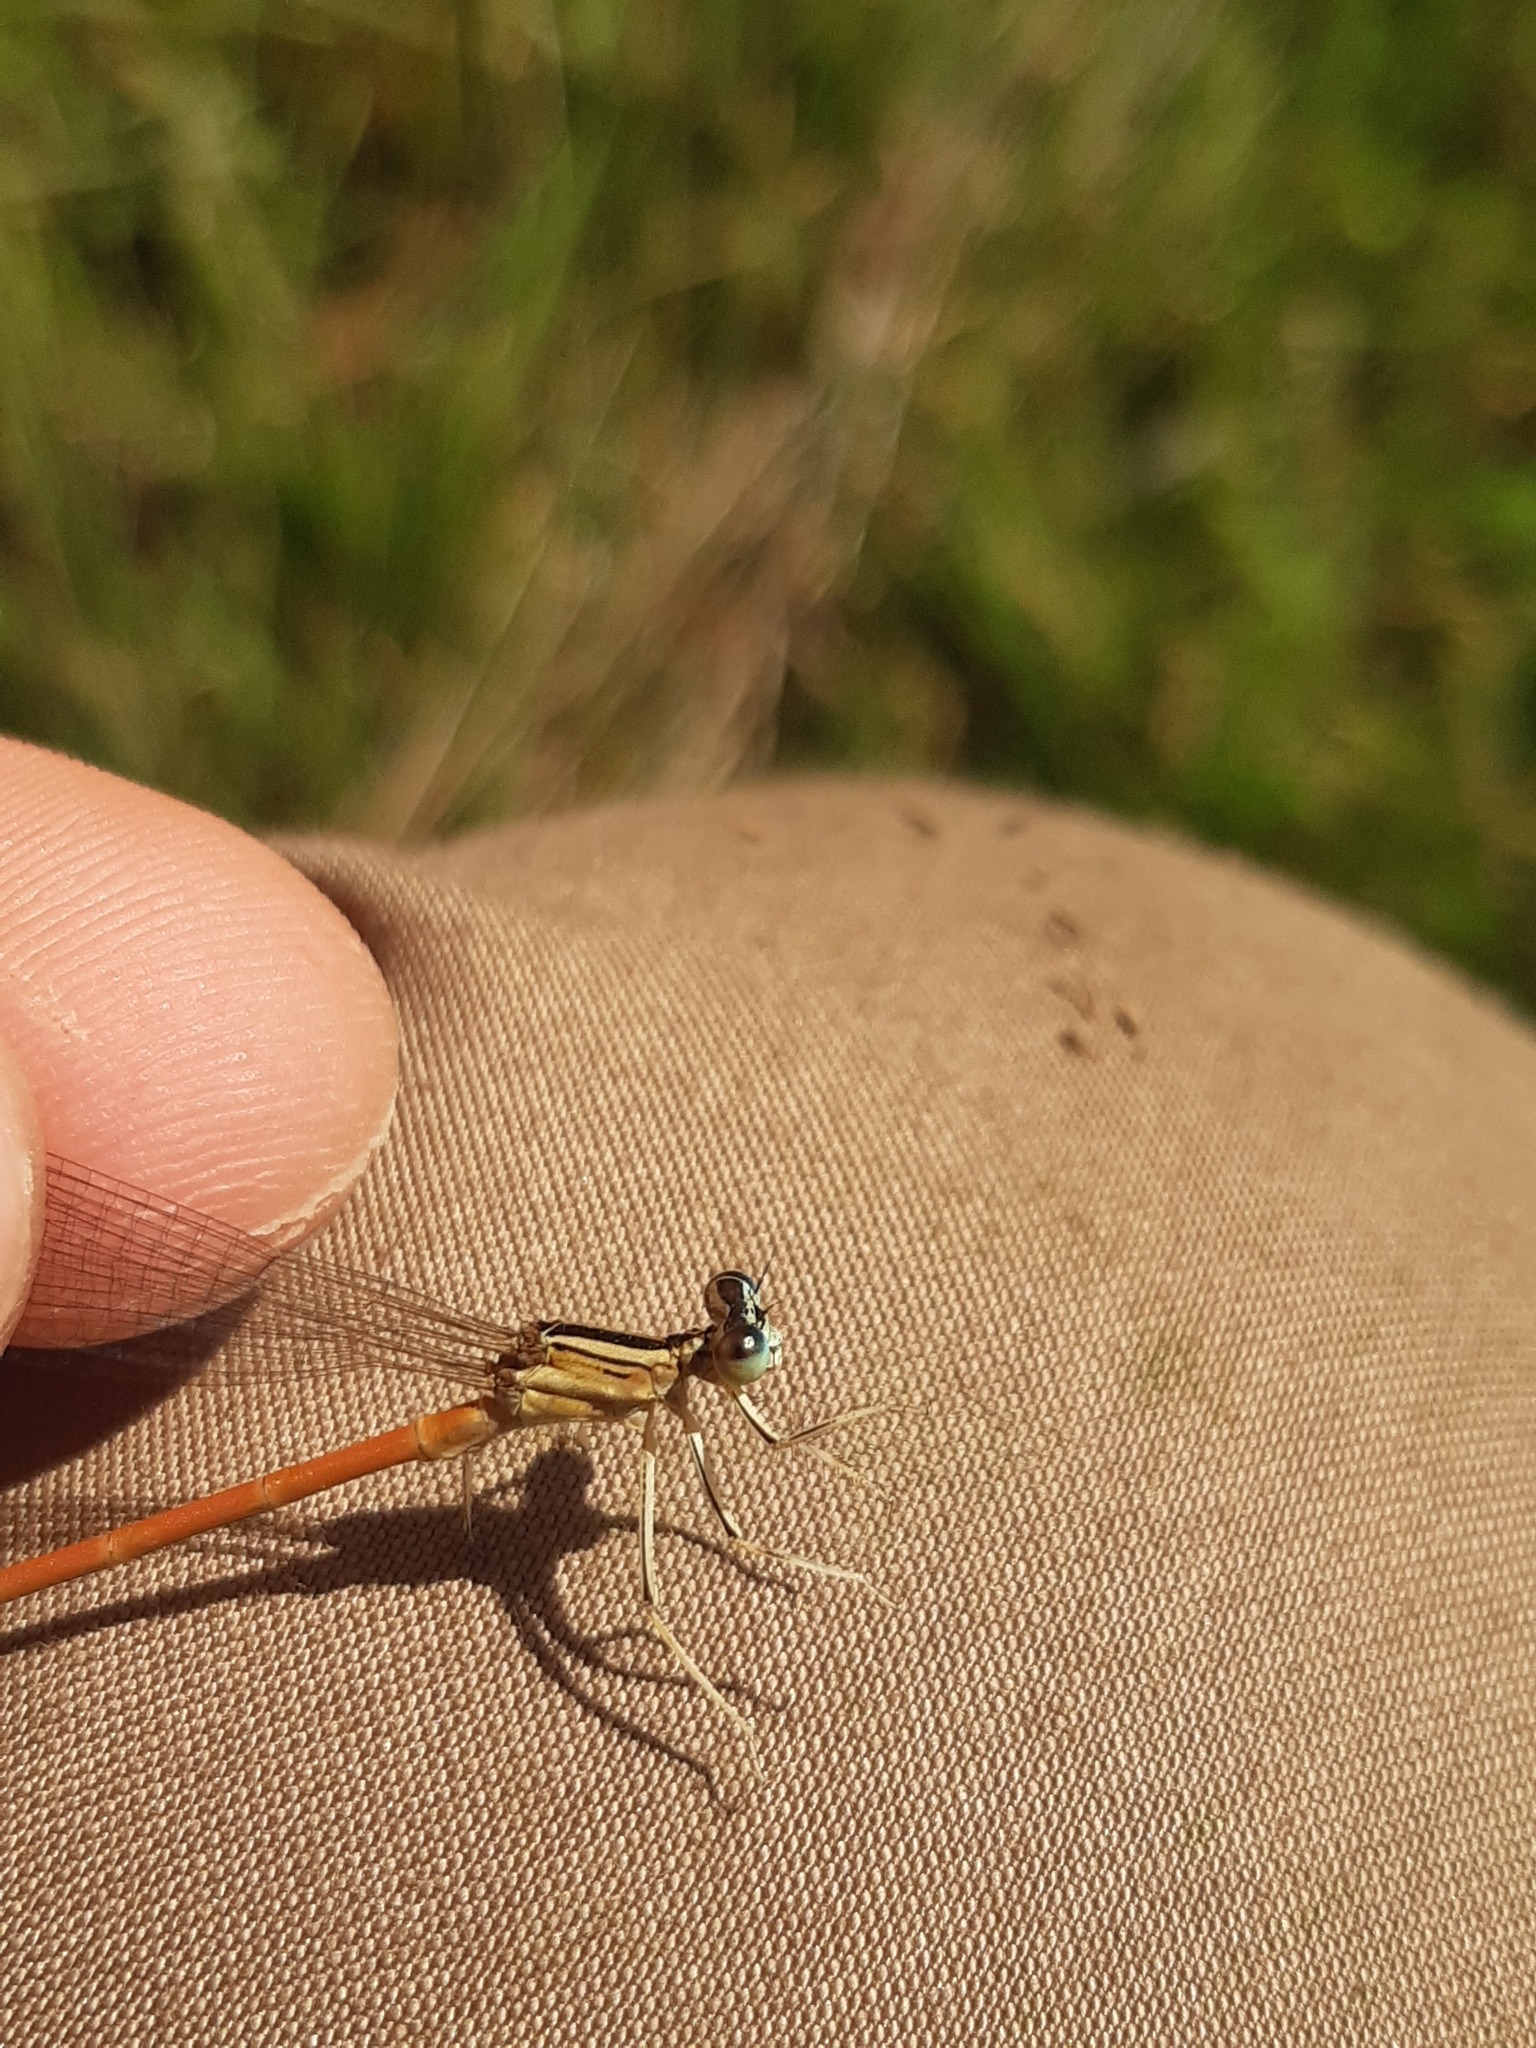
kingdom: Animalia
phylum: Arthropoda
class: Insecta
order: Odonata
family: Platycnemididae
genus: Platycnemis
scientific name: Platycnemis acutipennis
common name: Orange featherleg
